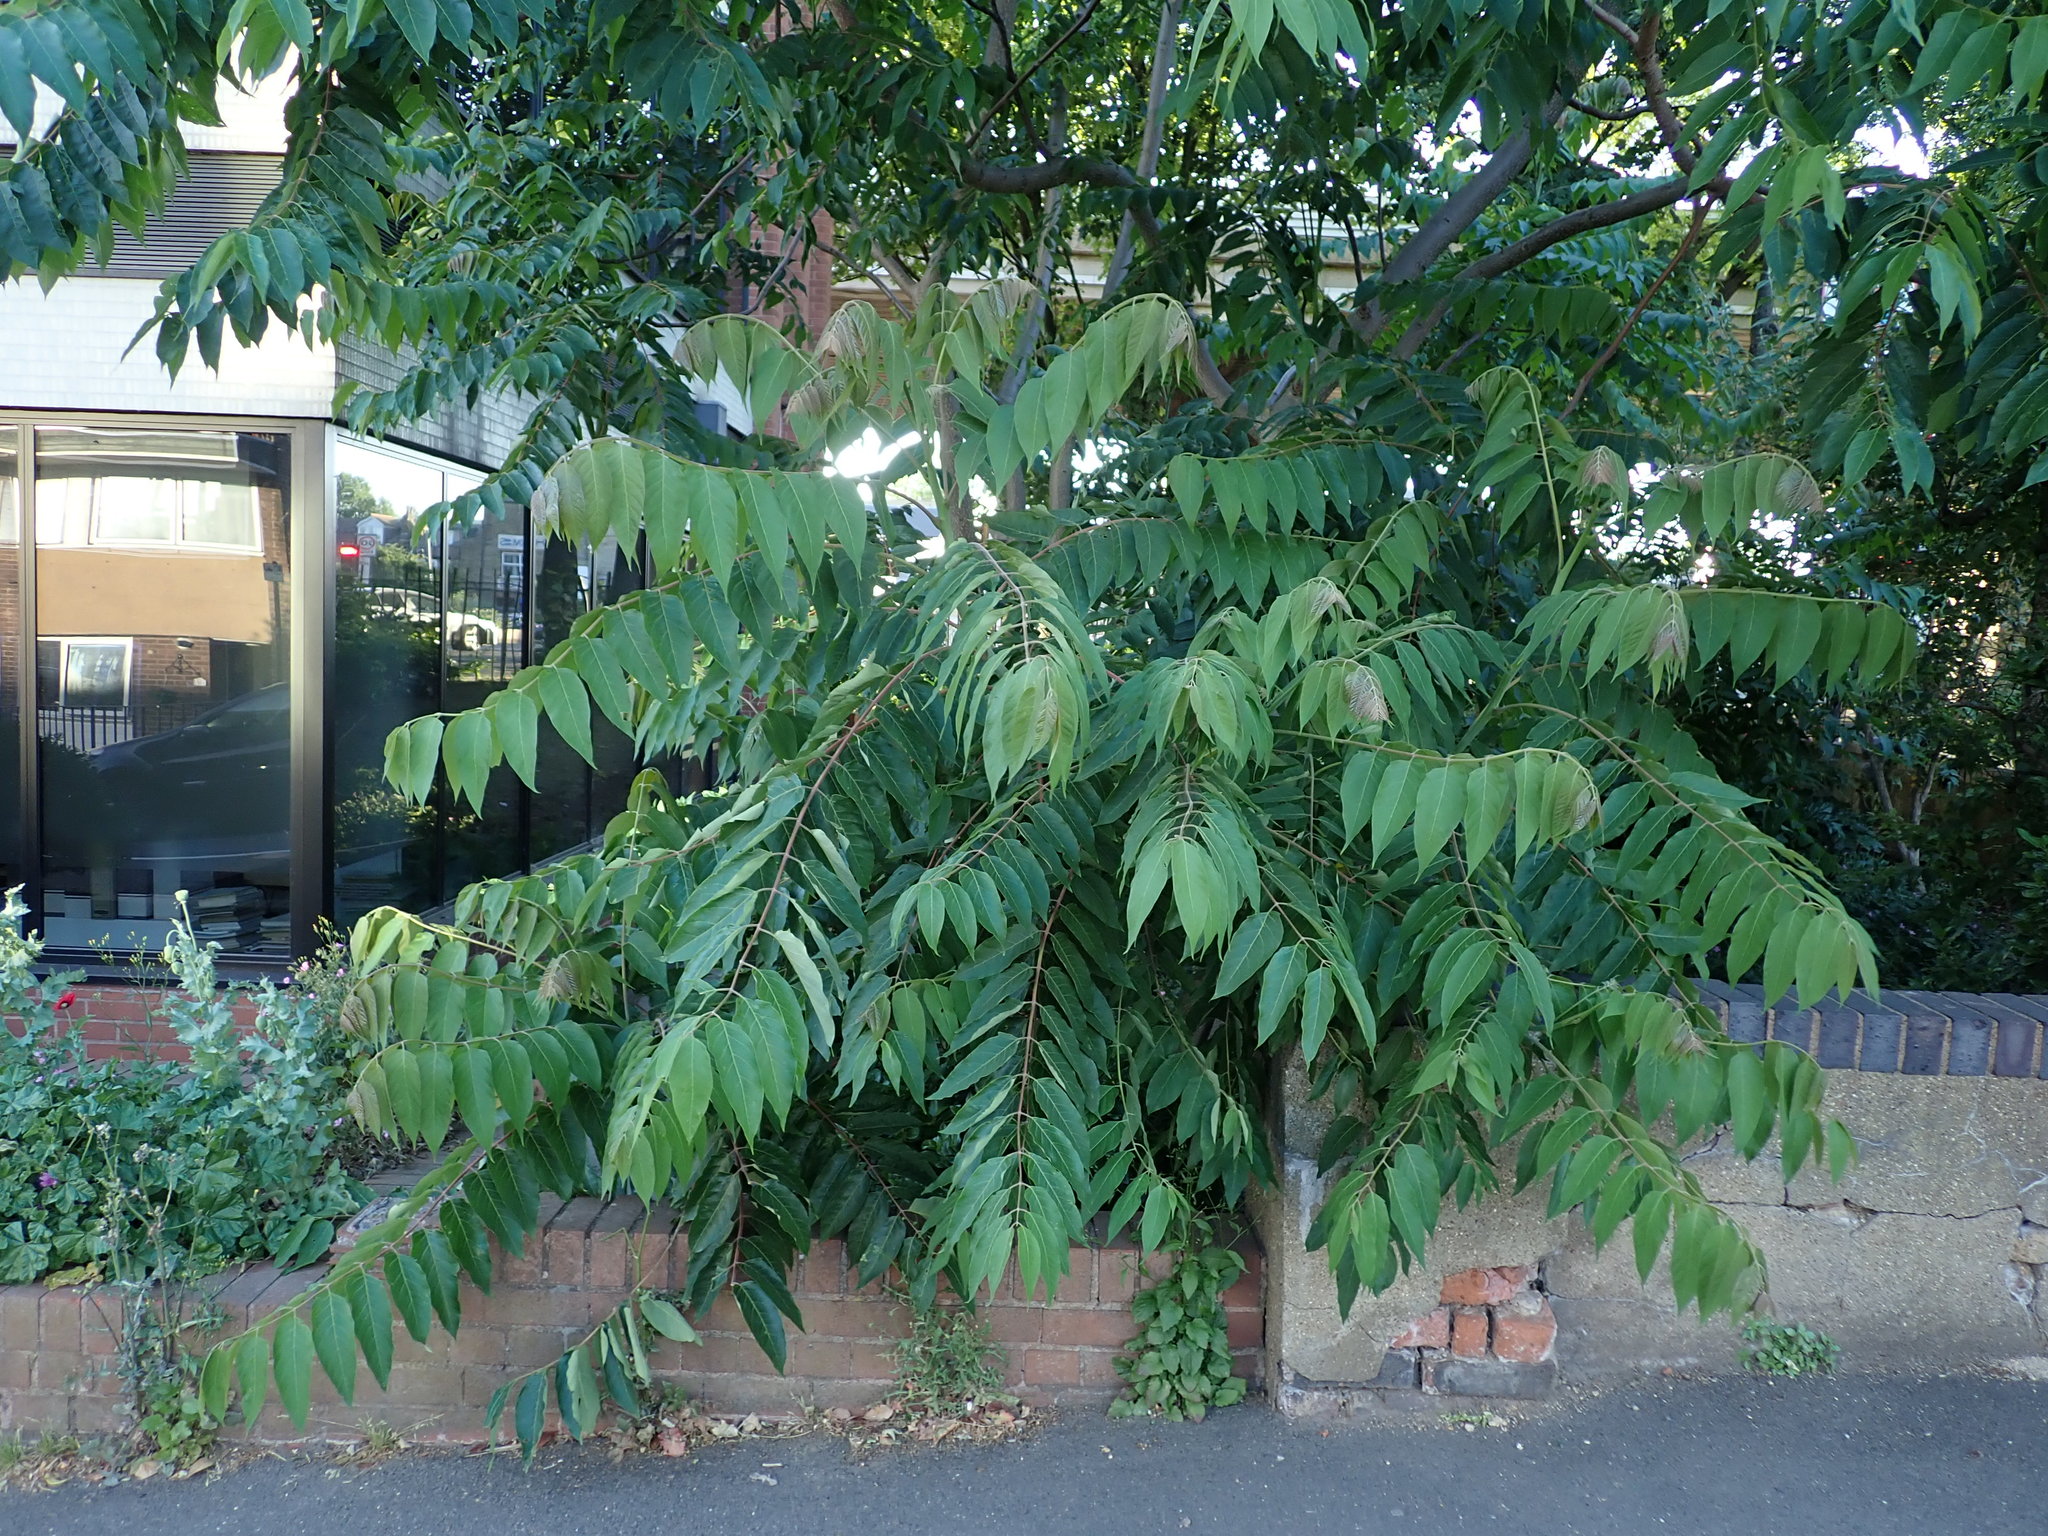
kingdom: Plantae
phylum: Tracheophyta
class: Magnoliopsida
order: Sapindales
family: Simaroubaceae
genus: Ailanthus
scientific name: Ailanthus altissima
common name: Tree-of-heaven
